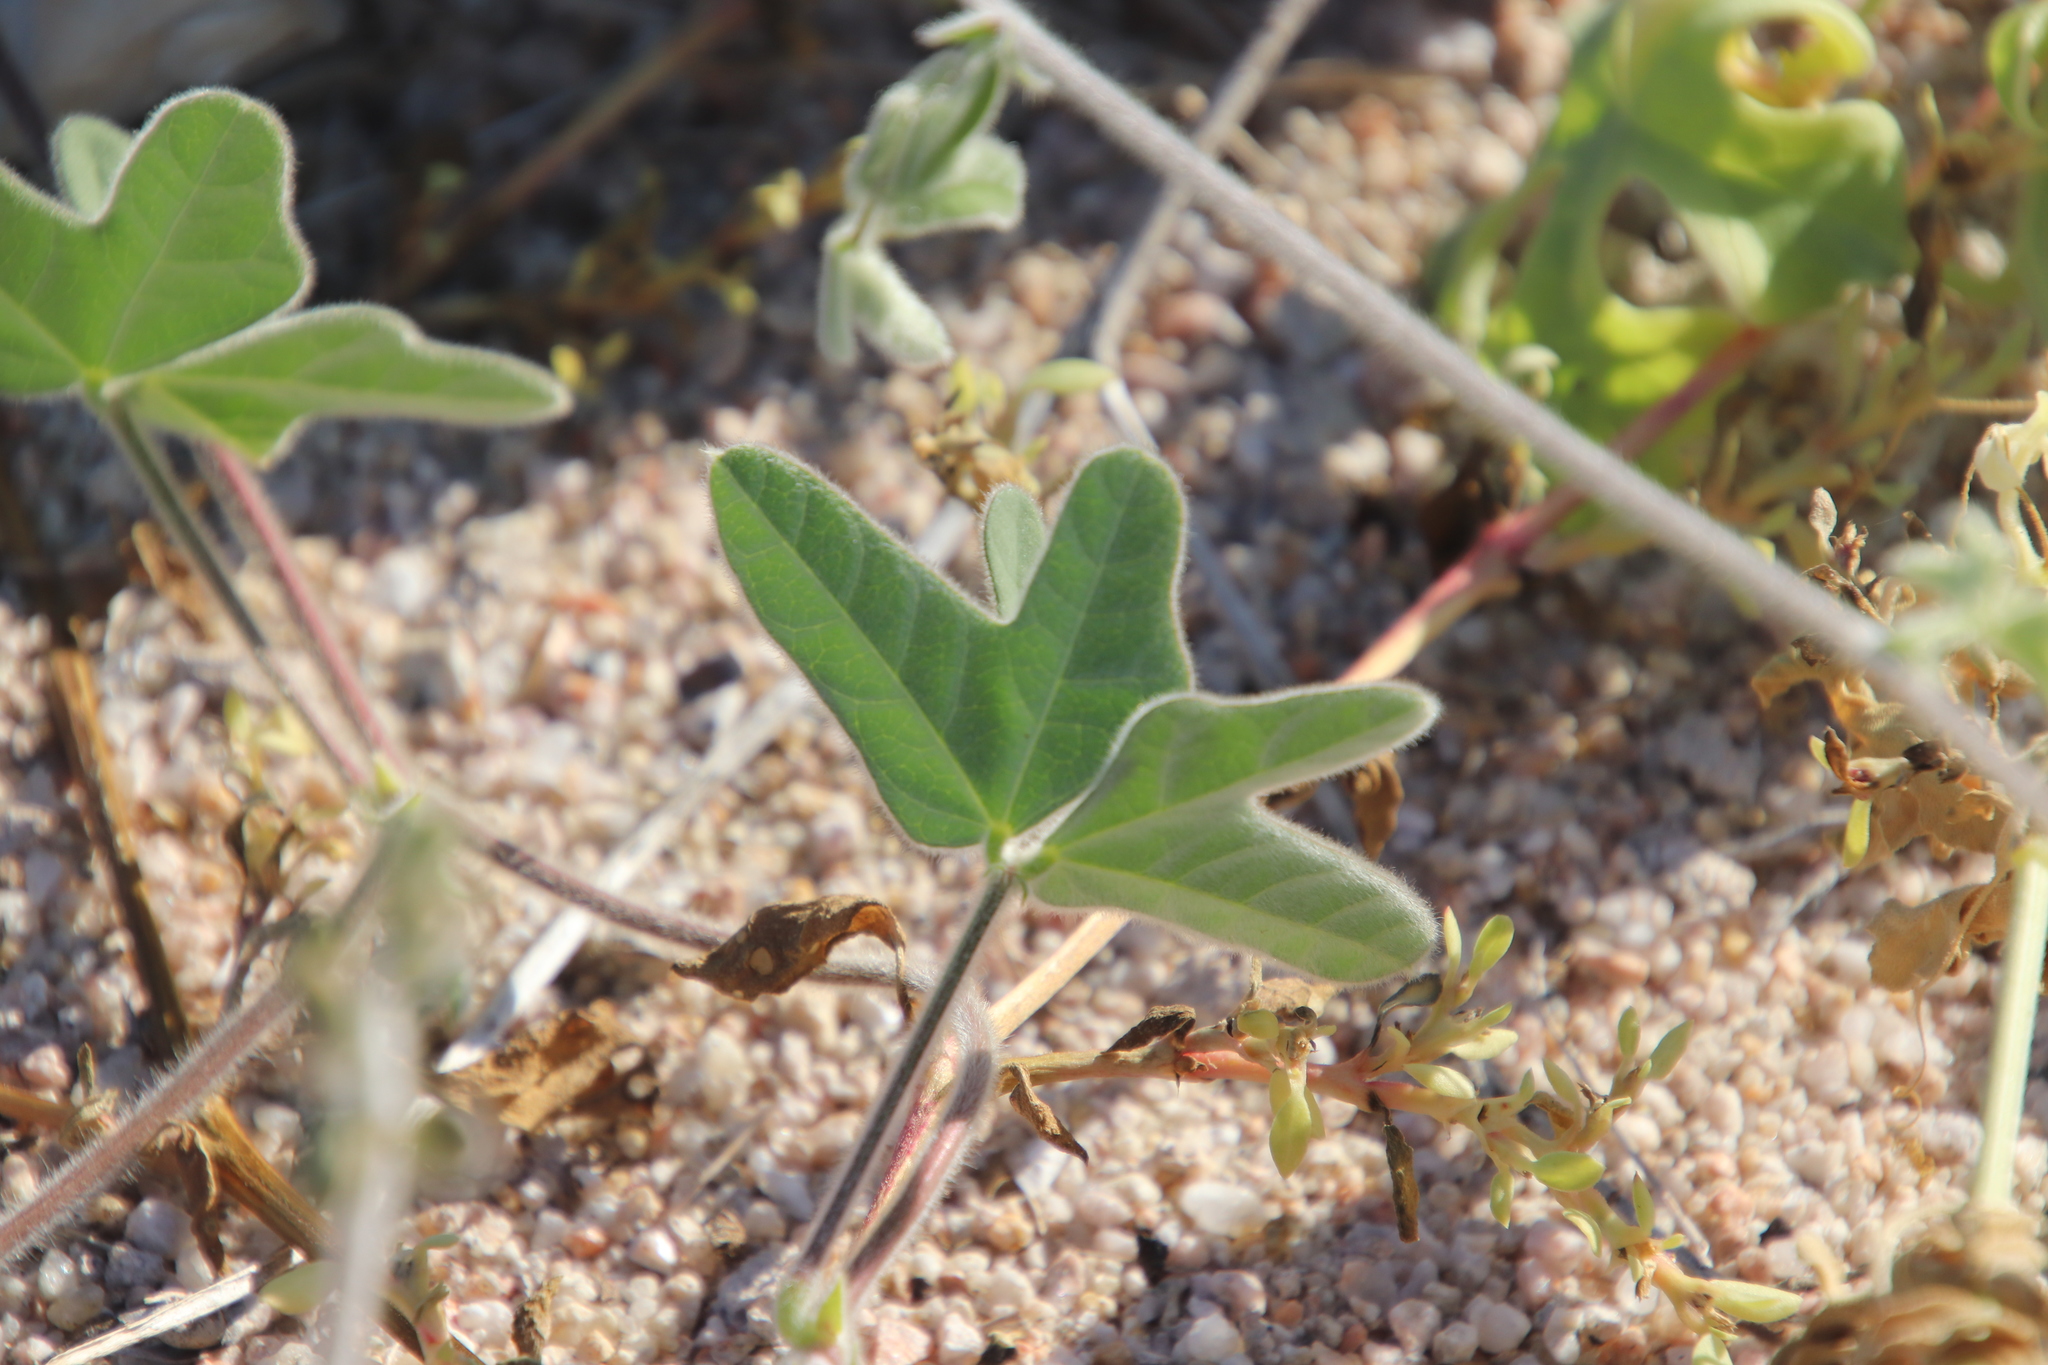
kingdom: Plantae
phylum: Tracheophyta
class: Magnoliopsida
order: Fabales
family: Fabaceae
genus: Macroptilium
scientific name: Macroptilium atropurpureum
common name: Purple bushbean
